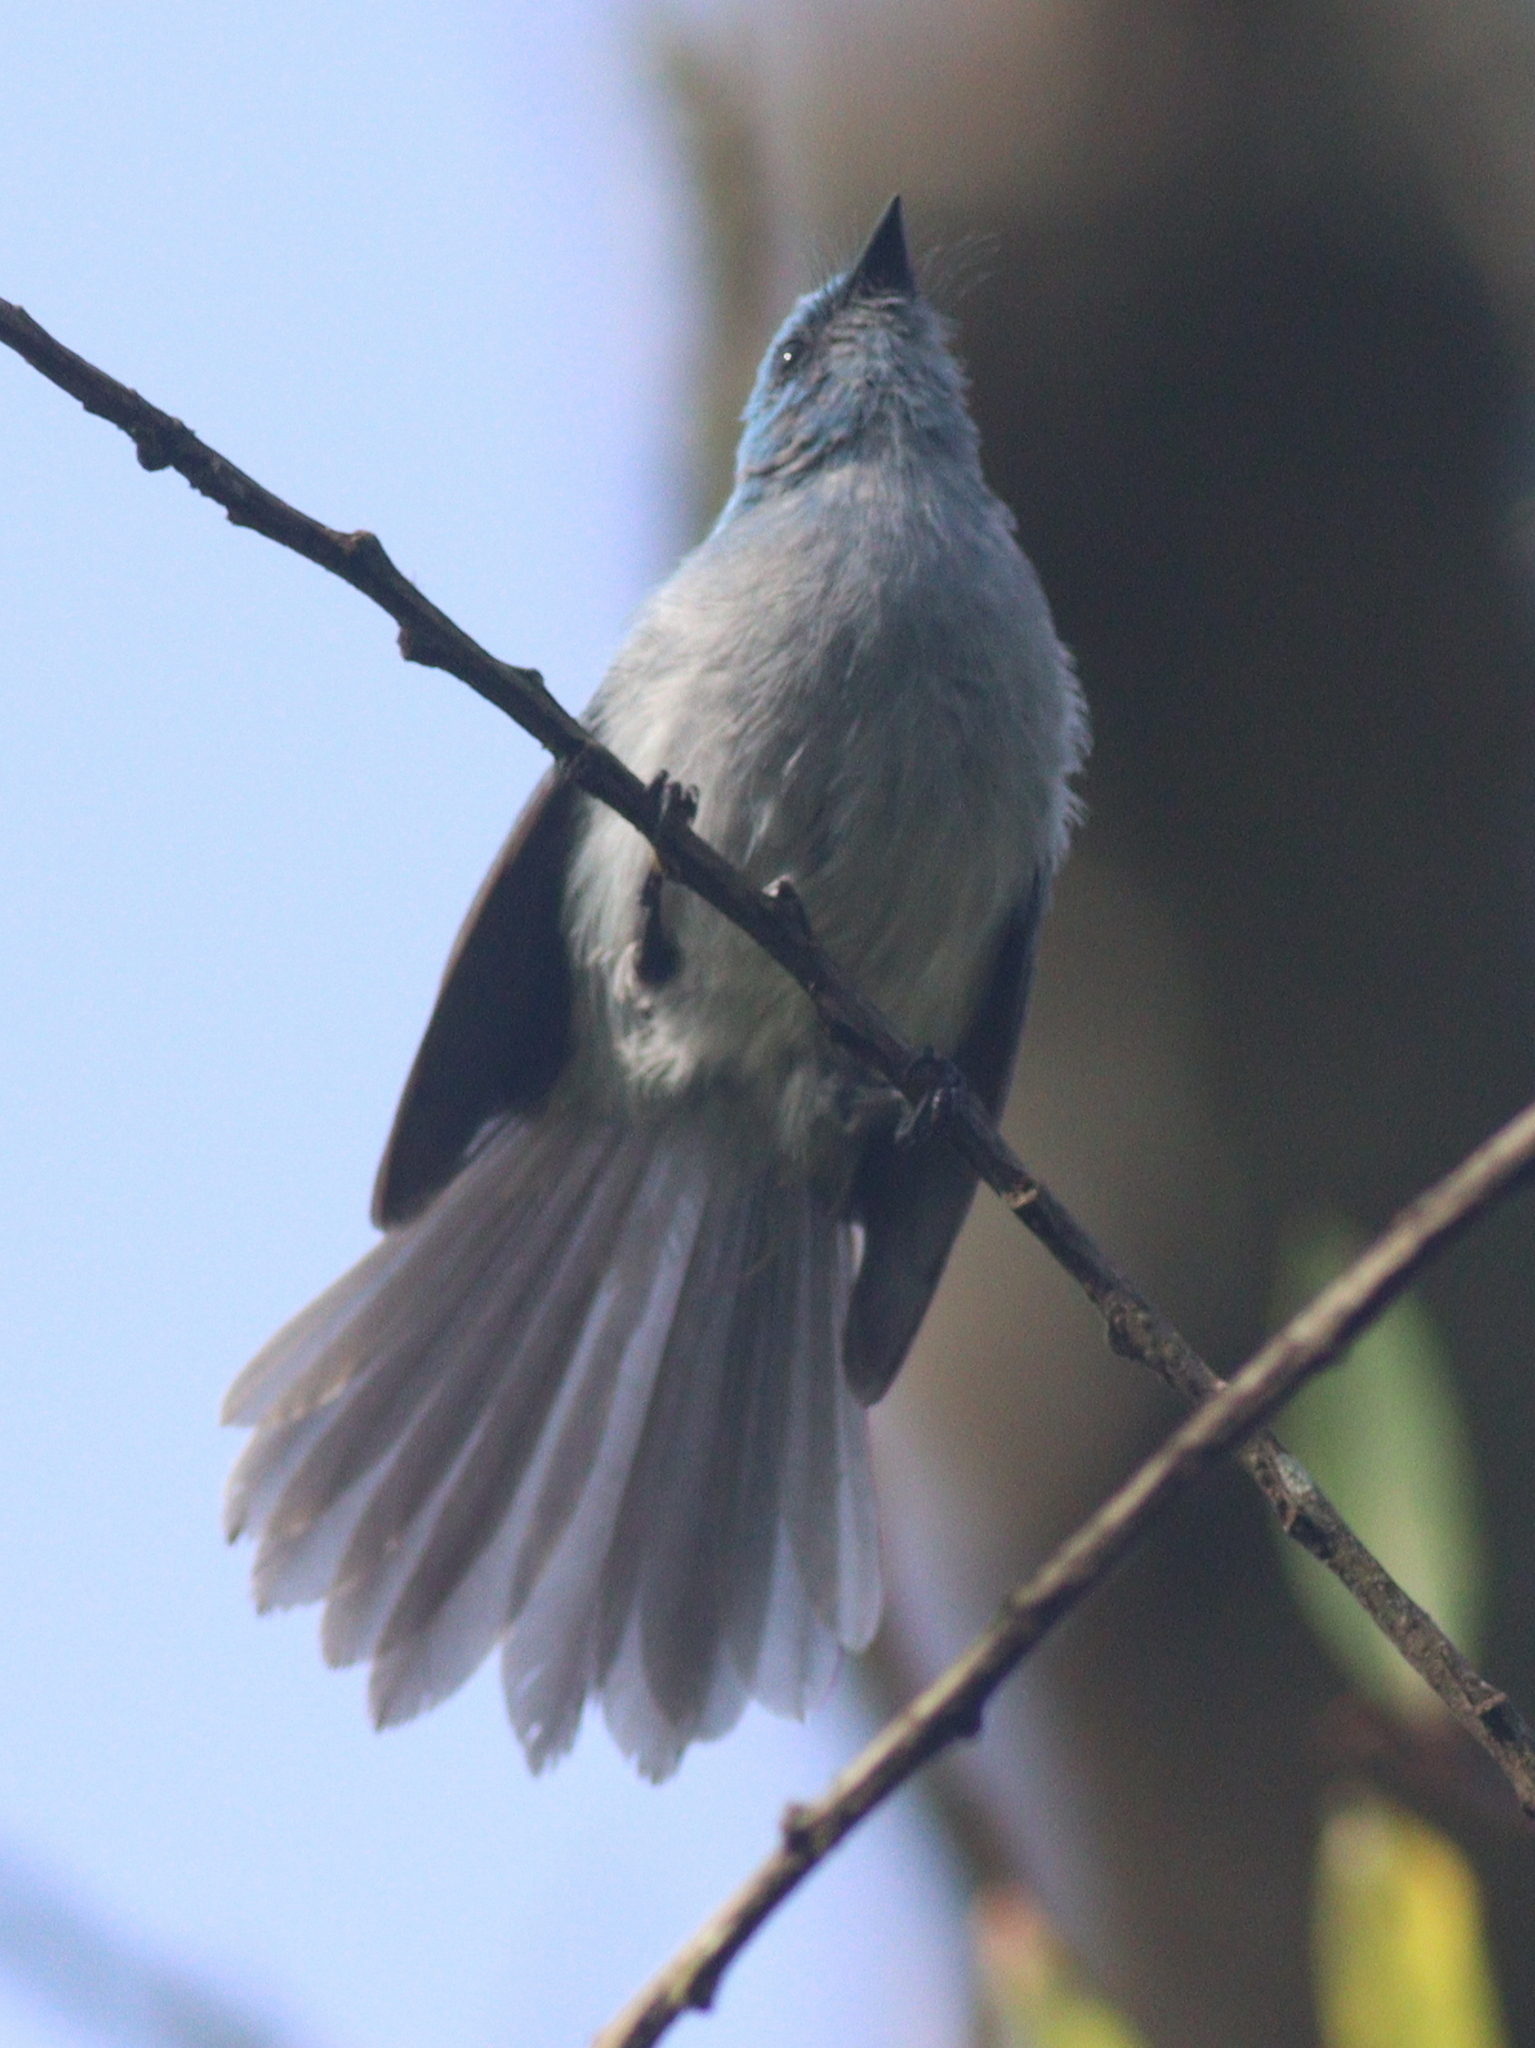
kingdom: Animalia
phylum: Chordata
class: Aves
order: Passeriformes
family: Stenostiridae
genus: Elminia
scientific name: Elminia longicauda
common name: African blue flycatcher
